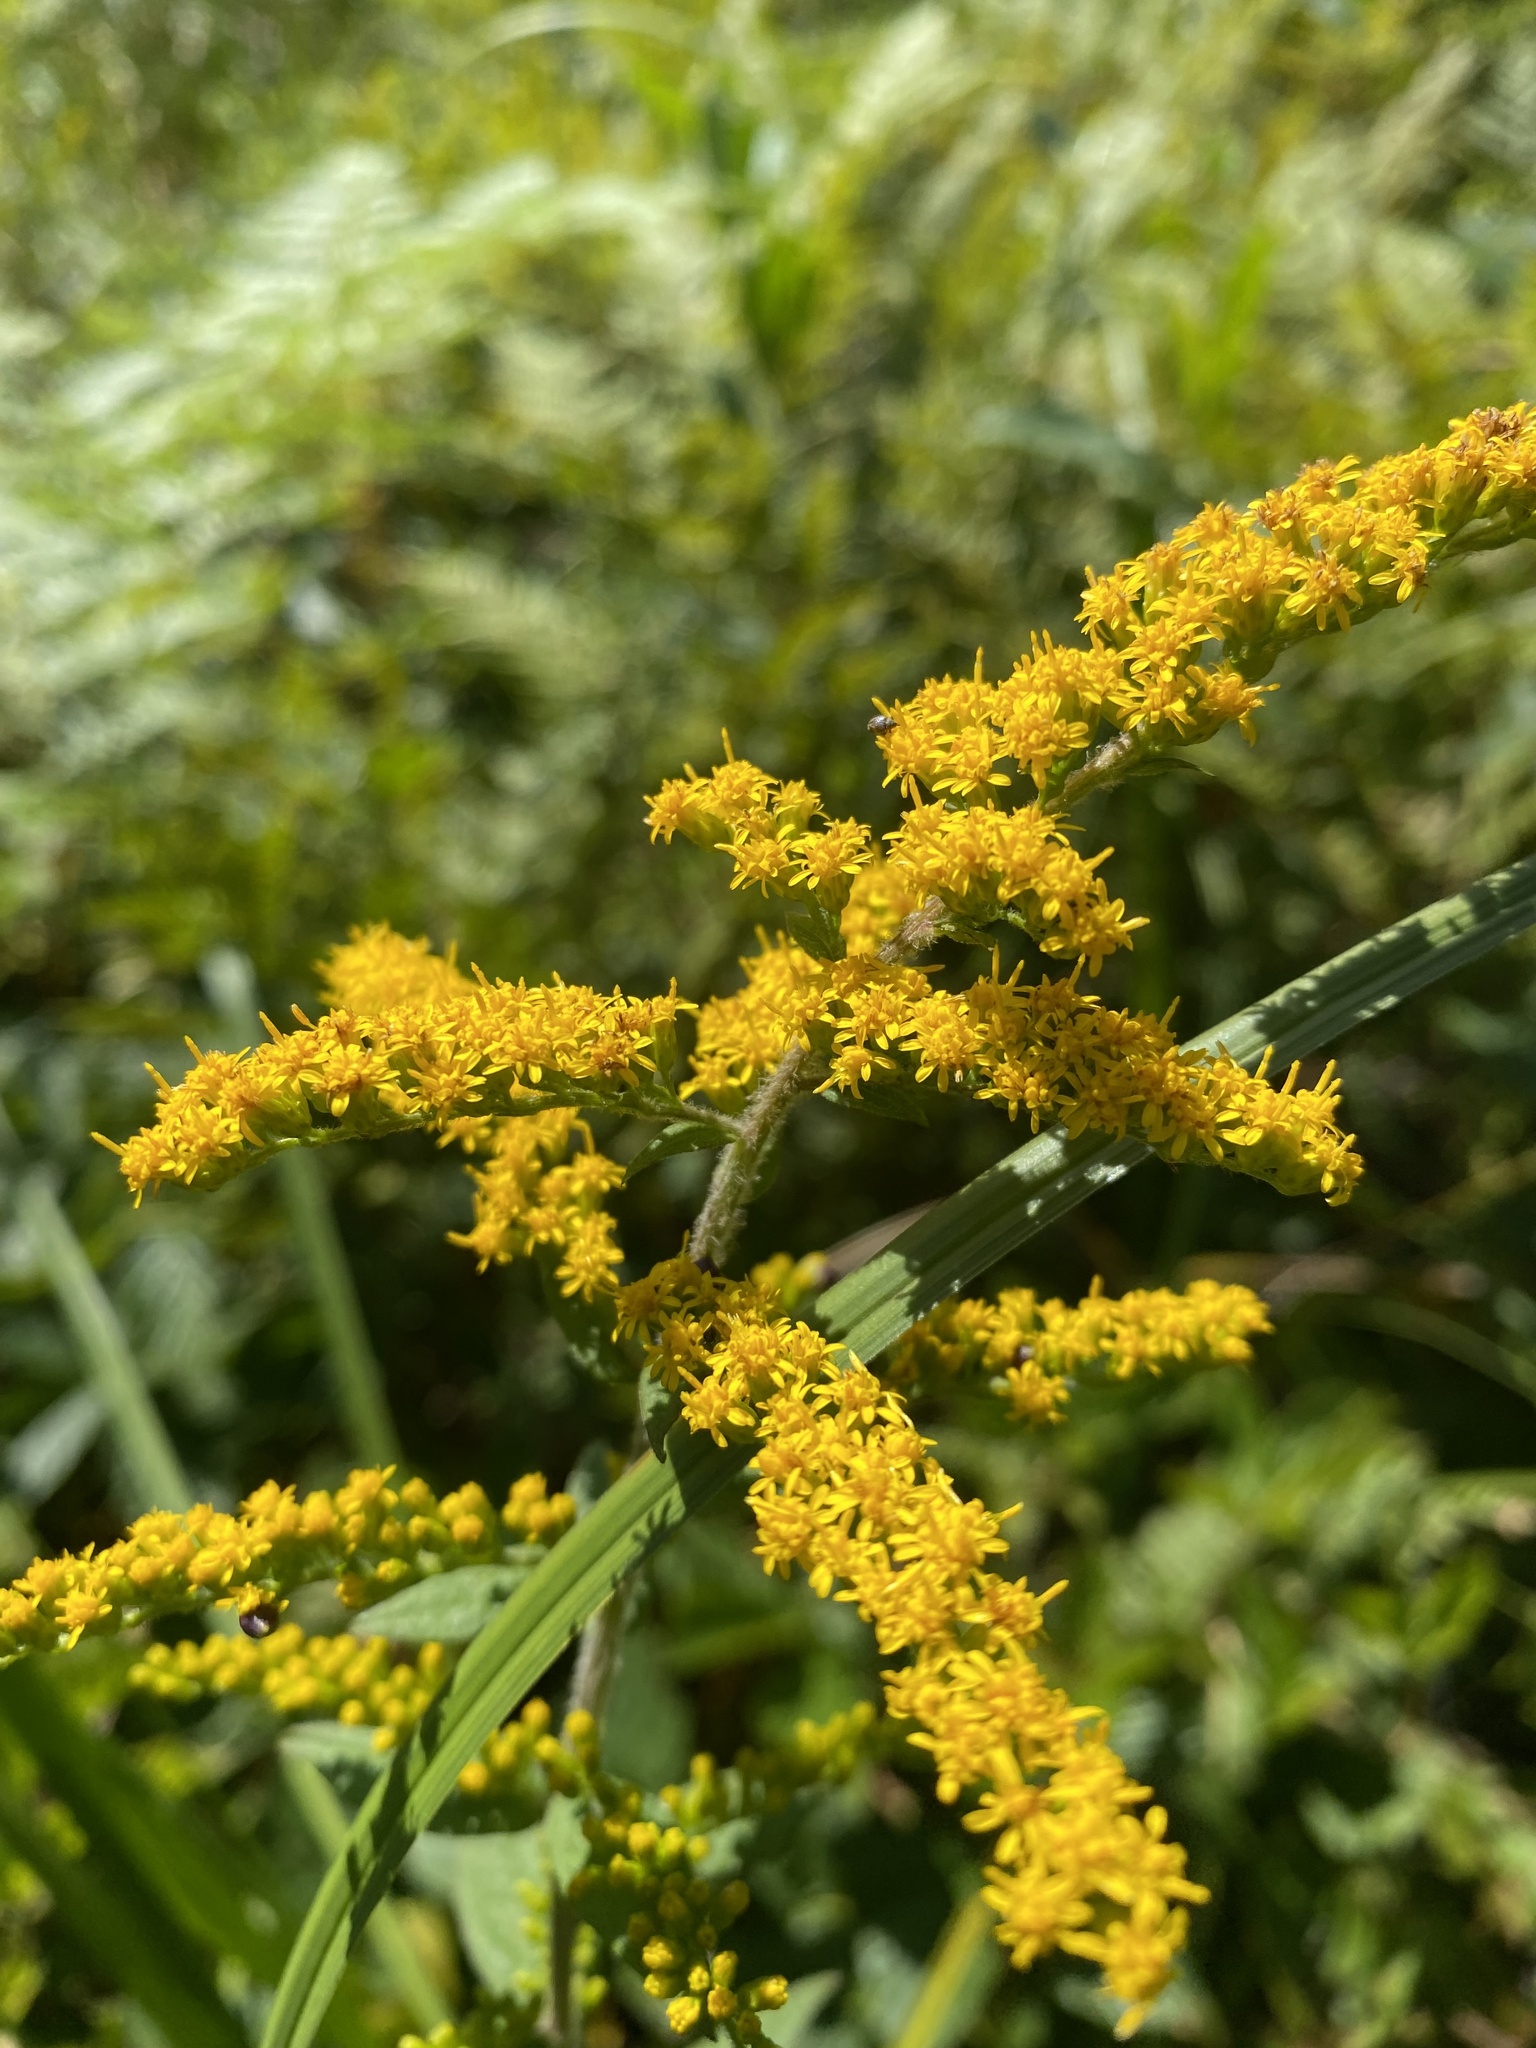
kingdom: Plantae
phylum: Tracheophyta
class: Magnoliopsida
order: Asterales
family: Asteraceae
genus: Solidago
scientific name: Solidago rugosa
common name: Rough-stemmed goldenrod
